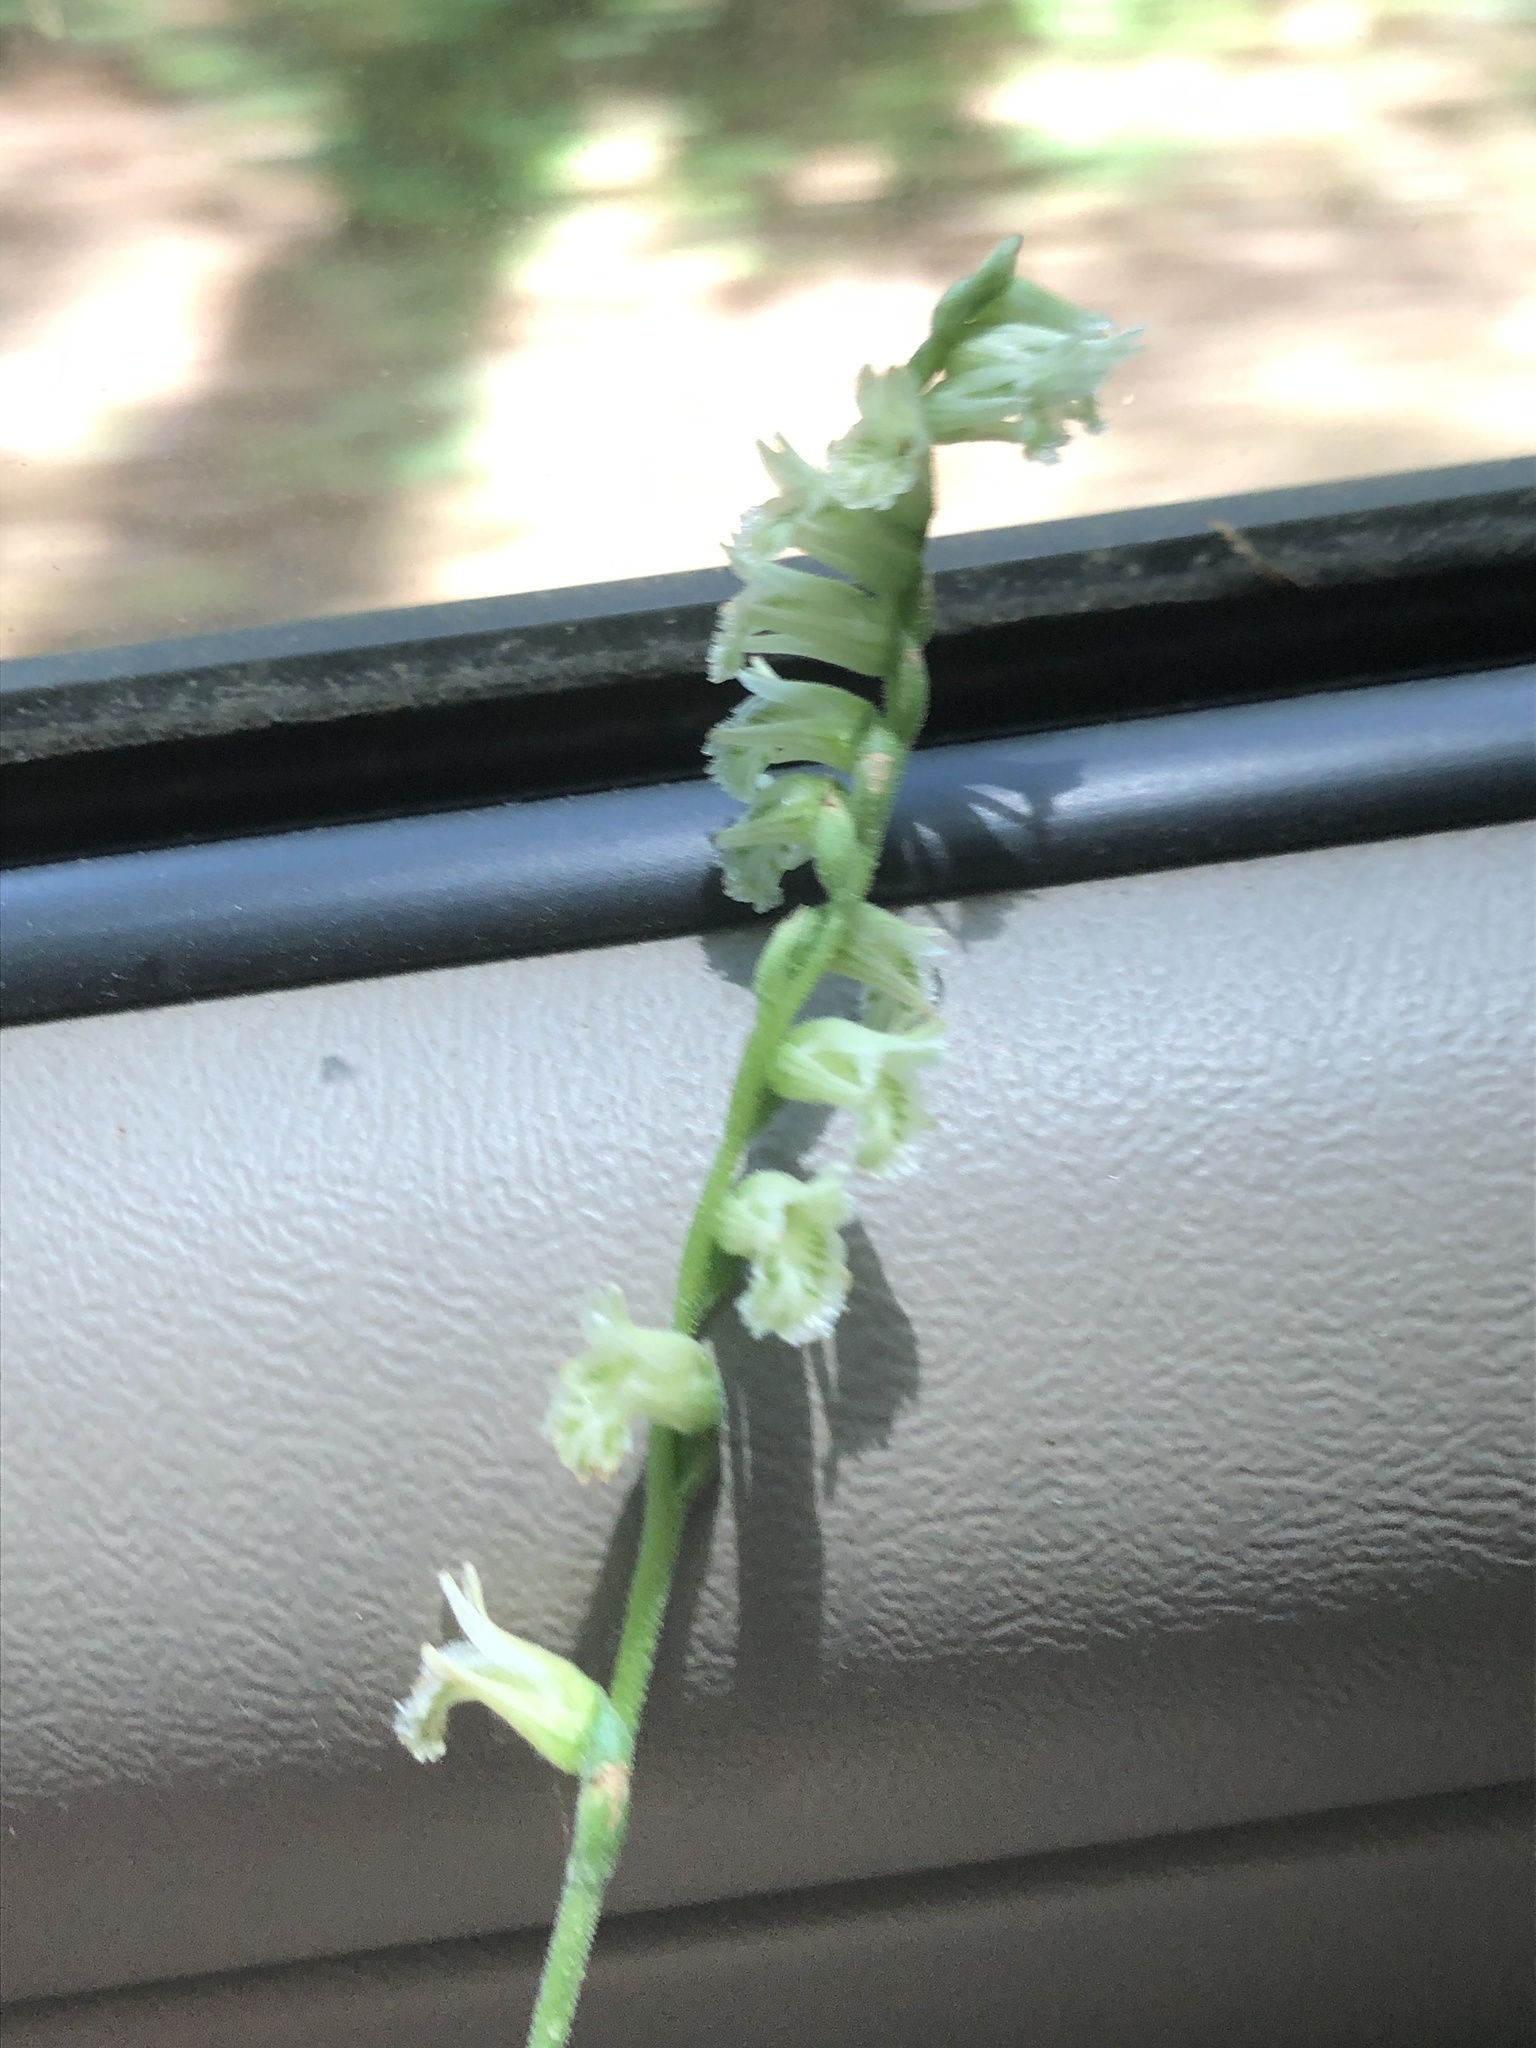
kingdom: Plantae
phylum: Tracheophyta
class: Liliopsida
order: Asparagales
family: Orchidaceae
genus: Spiranthes
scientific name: Spiranthes sylvatica
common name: Woodland lady's tresses
